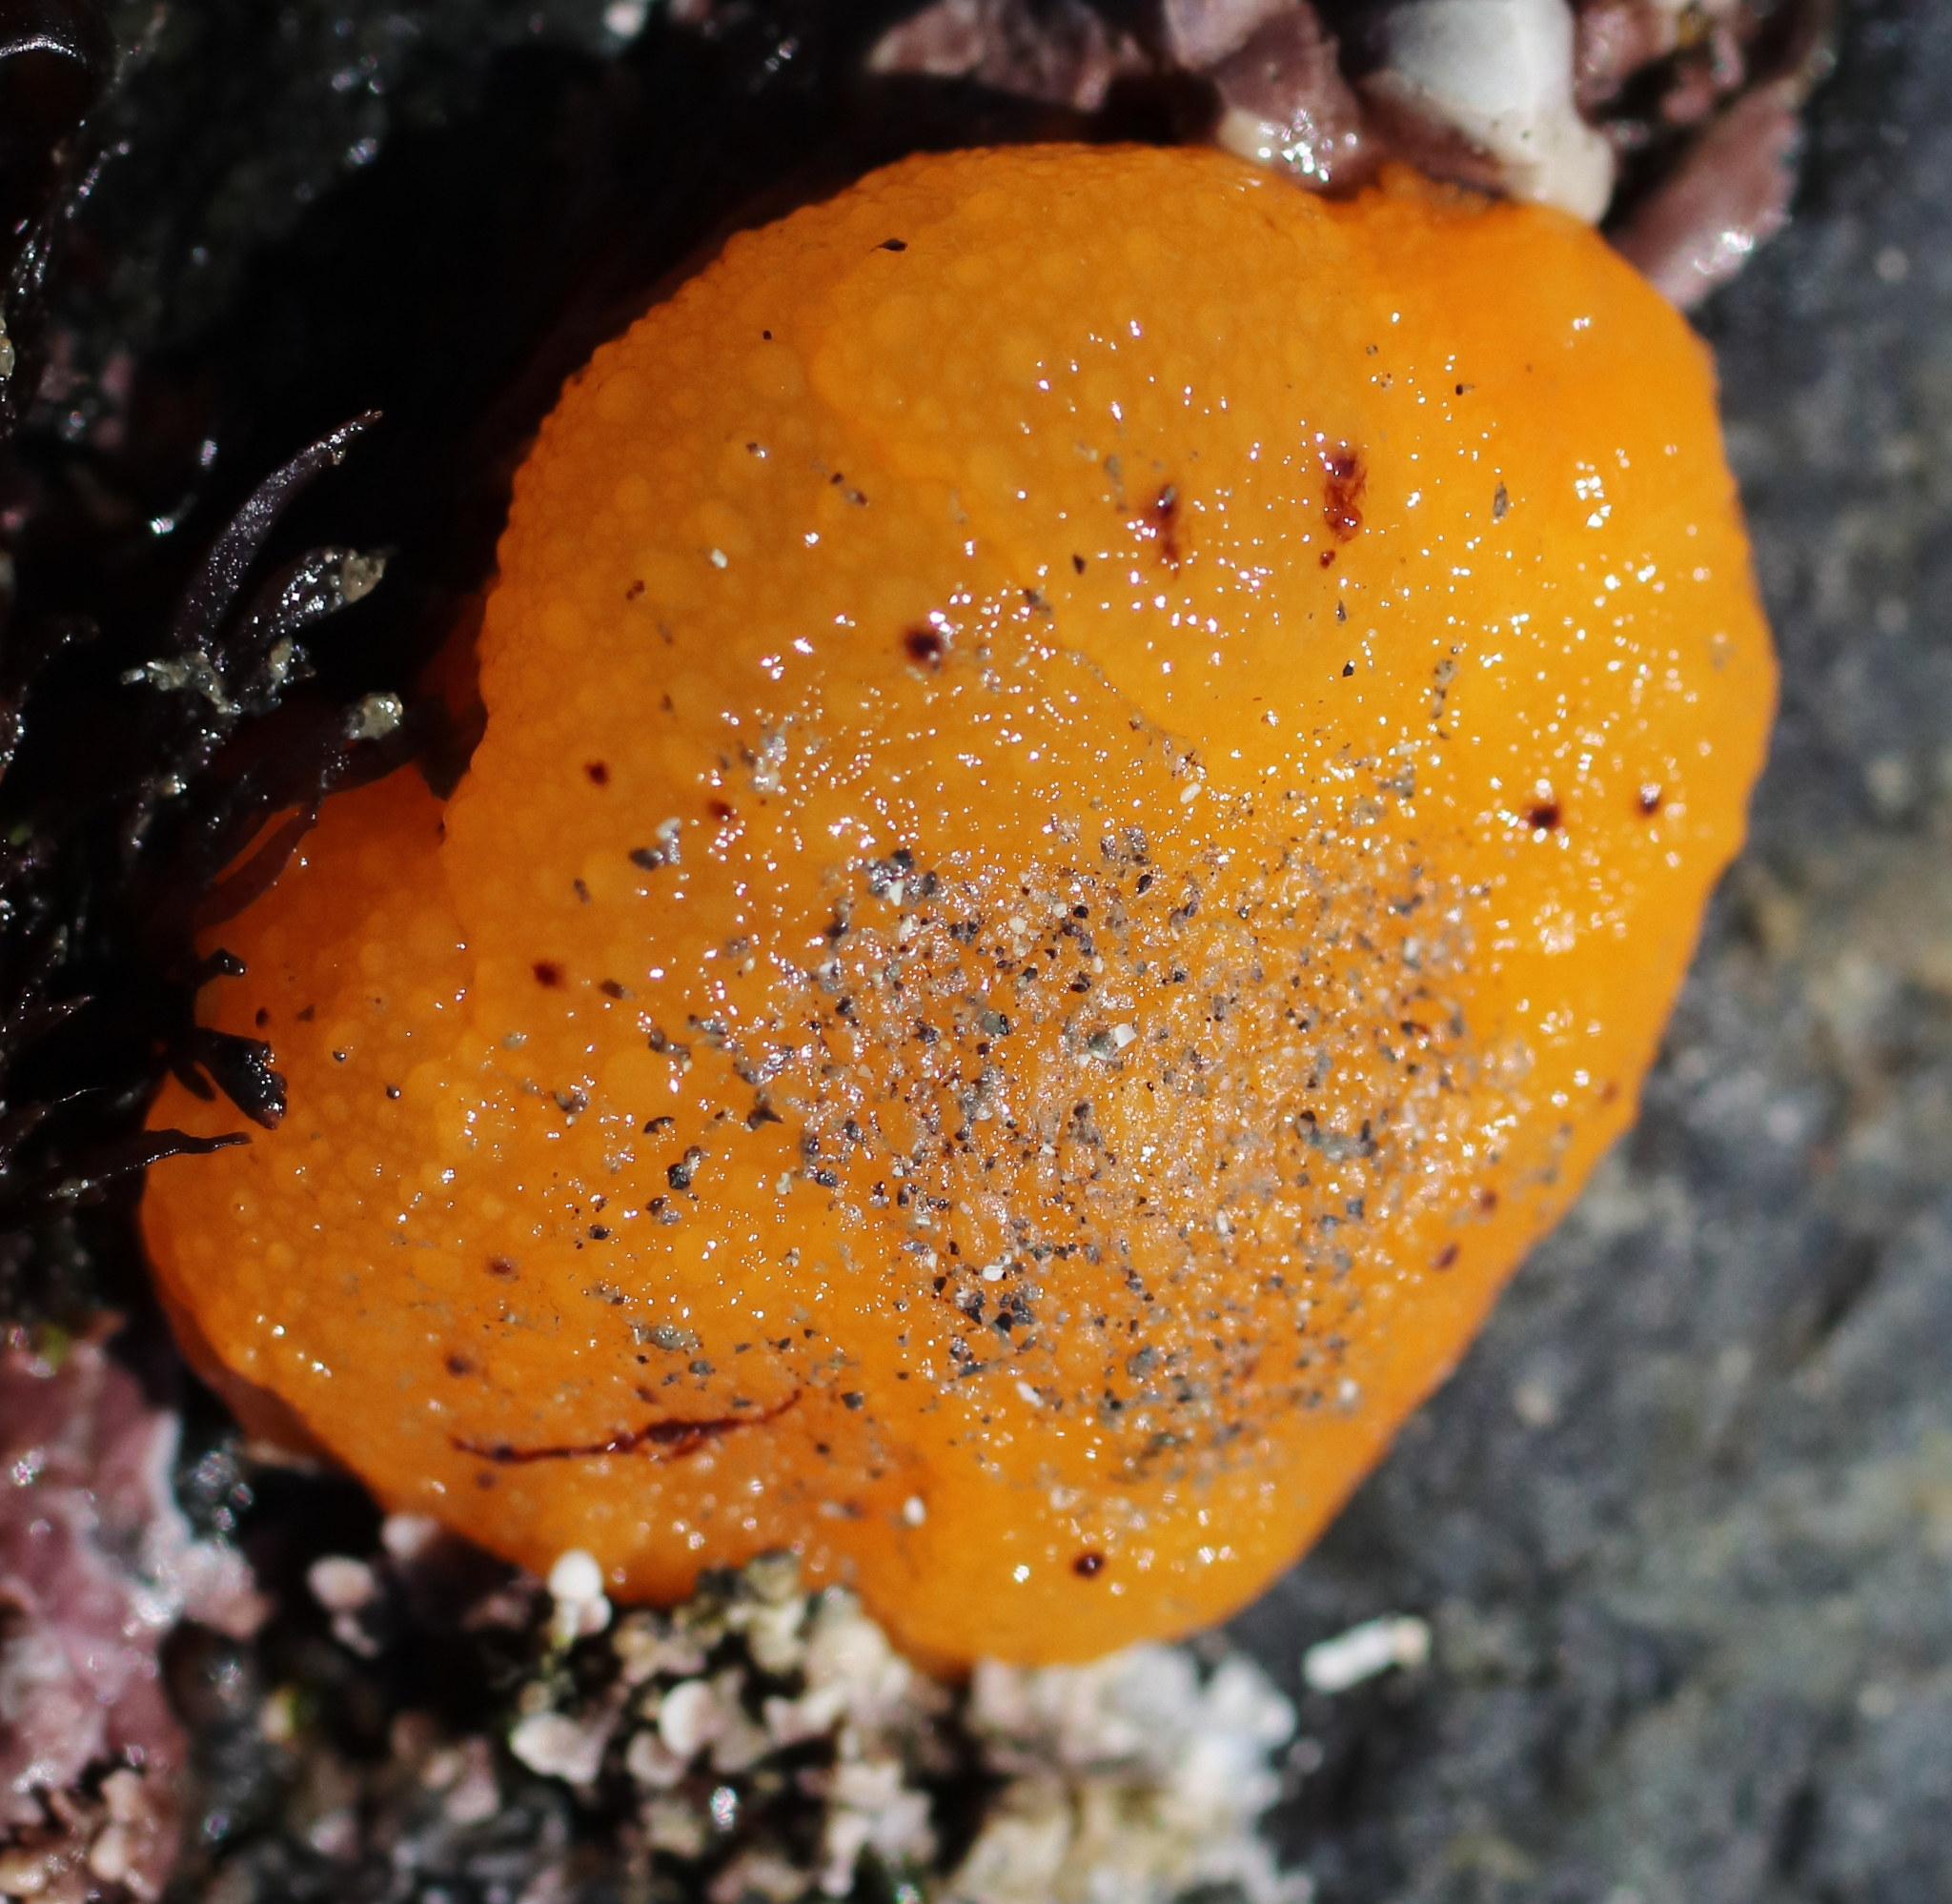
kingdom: Animalia
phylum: Mollusca
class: Gastropoda
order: Nudibranchia
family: Dorididae
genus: Doris
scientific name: Doris montereyensis
